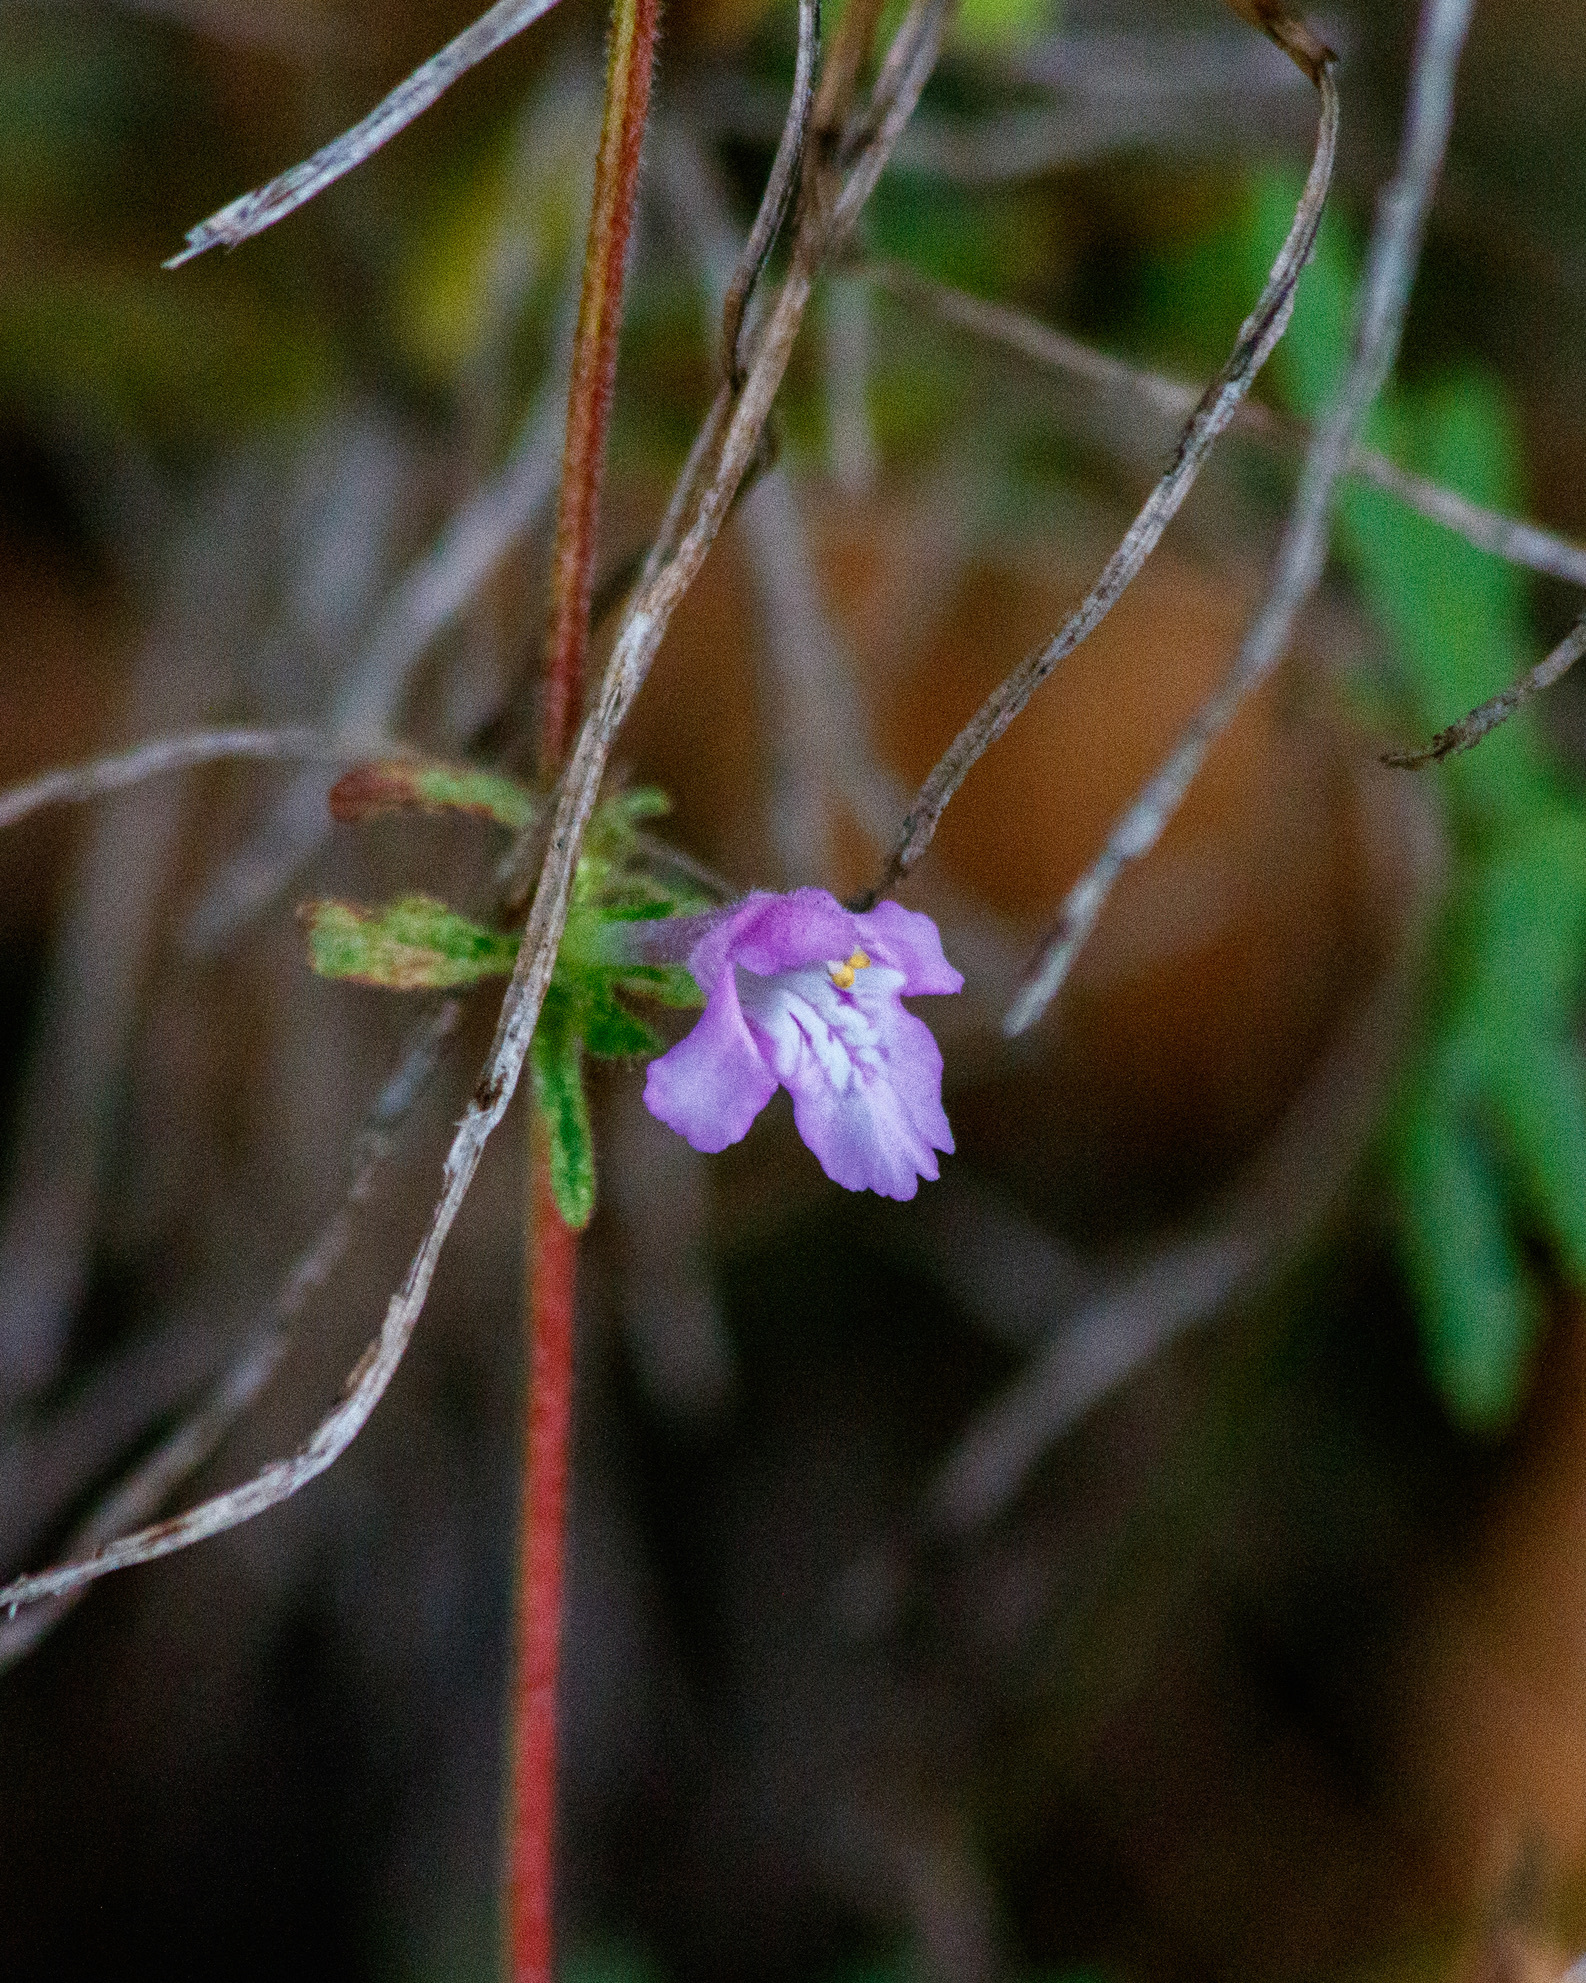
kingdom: Plantae
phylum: Tracheophyta
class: Magnoliopsida
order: Lamiales
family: Lamiaceae
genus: Galeopsis
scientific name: Galeopsis ladanum
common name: Broad-leaved hemp-nettle
